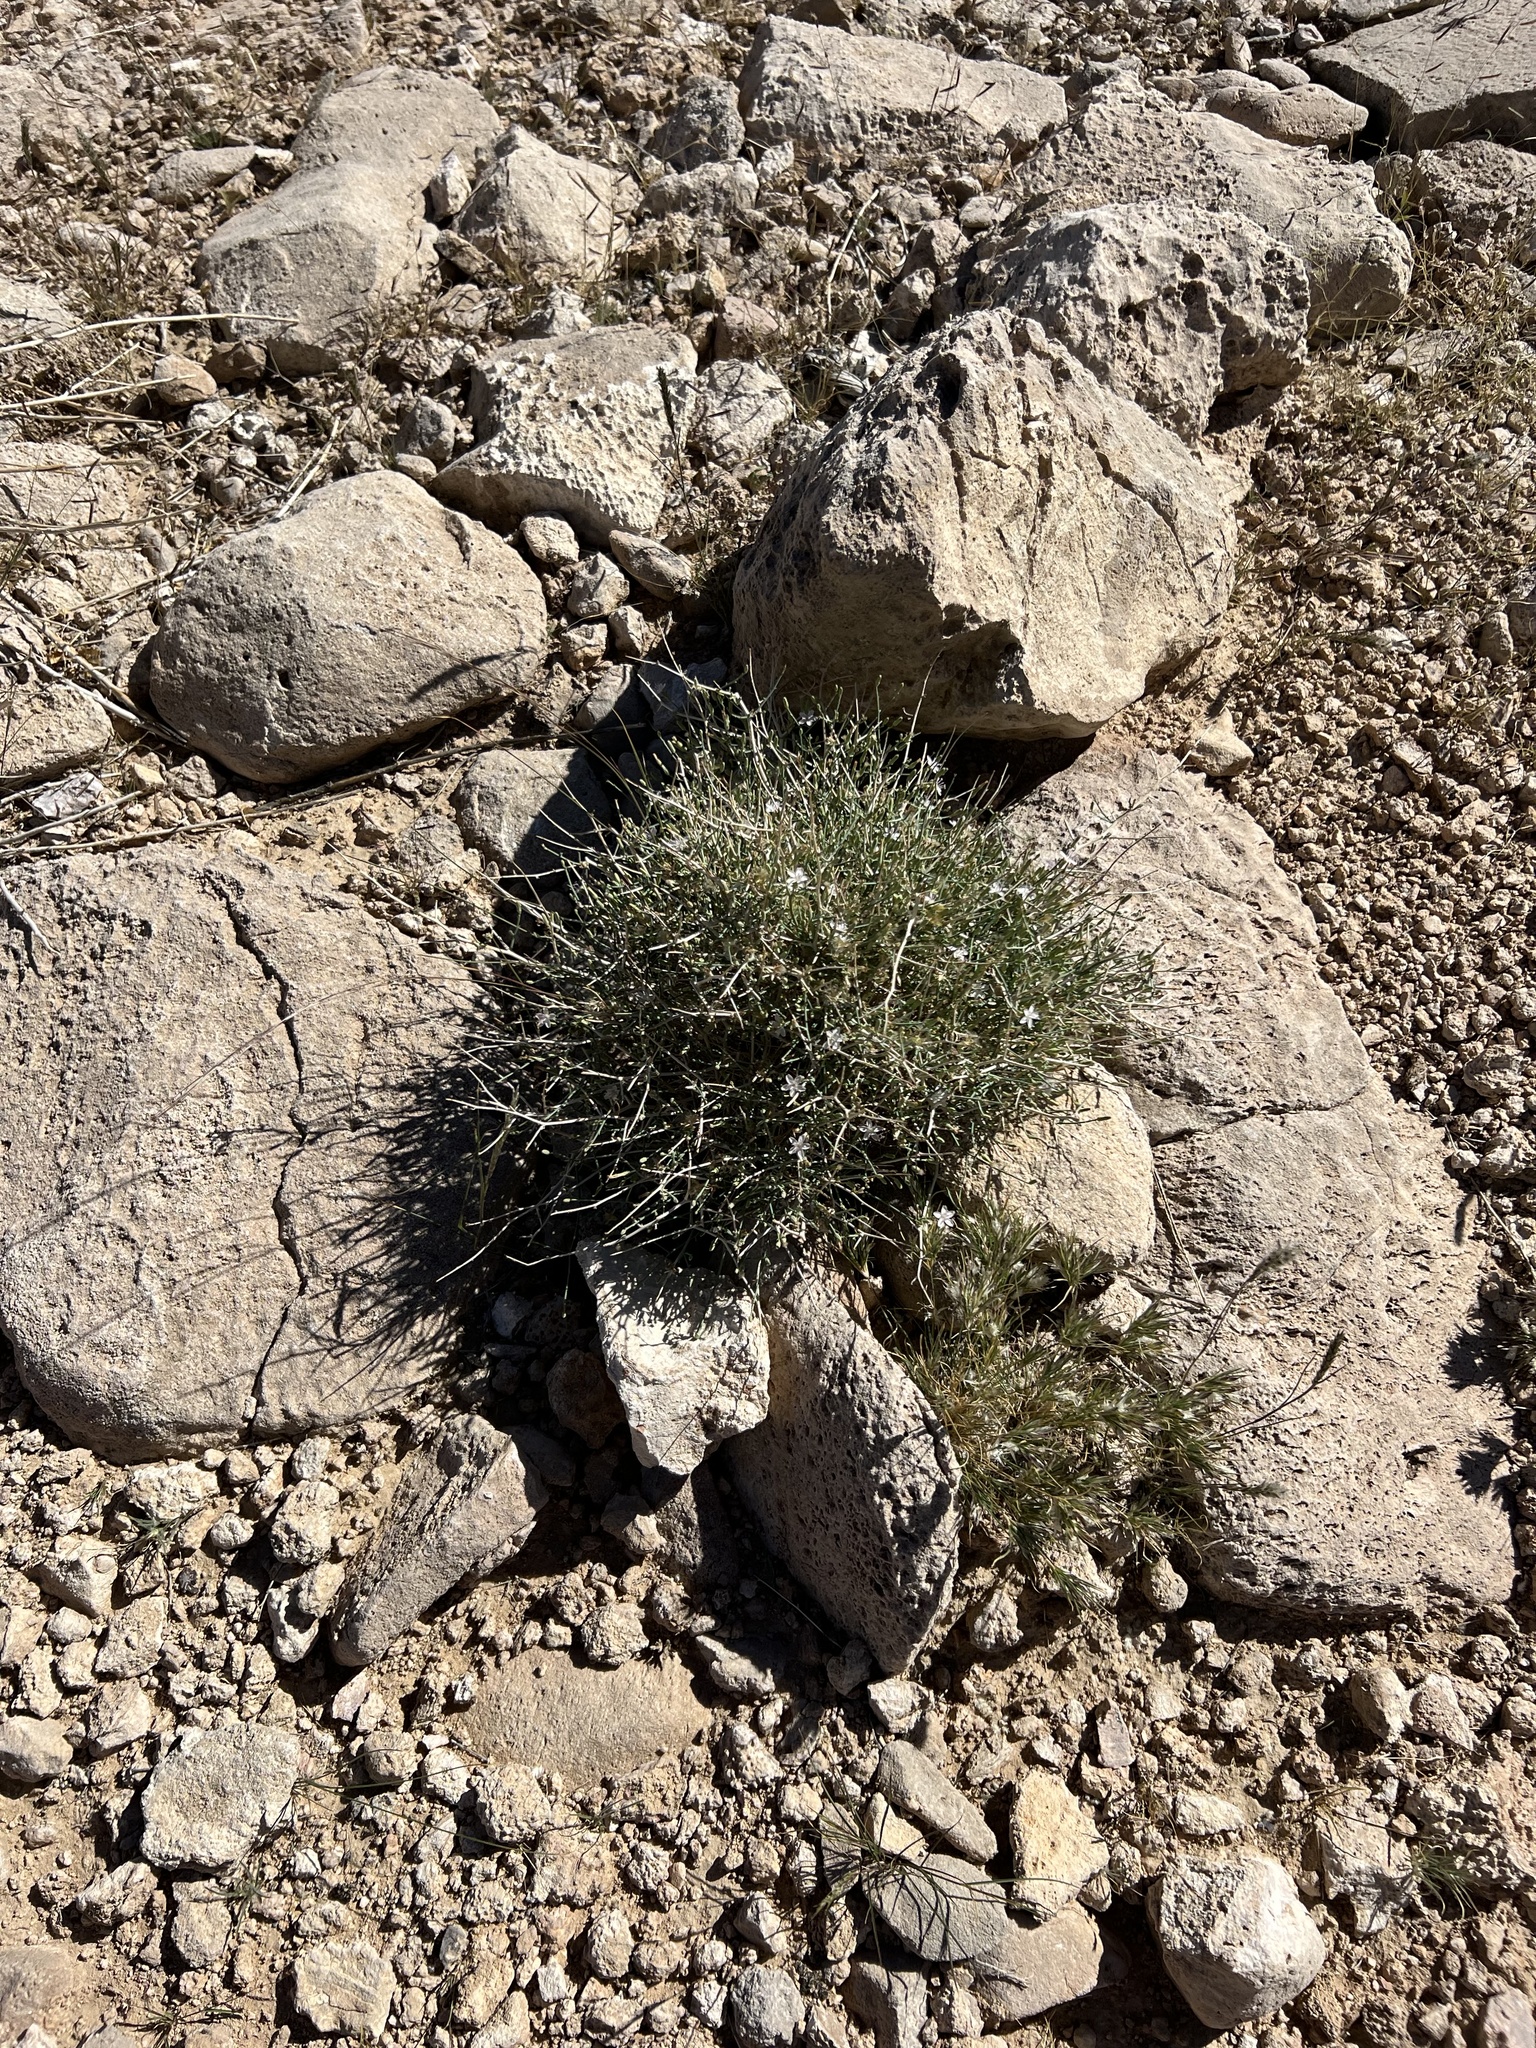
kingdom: Plantae
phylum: Tracheophyta
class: Magnoliopsida
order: Asterales
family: Asteraceae
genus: Stephanomeria
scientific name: Stephanomeria pauciflora
